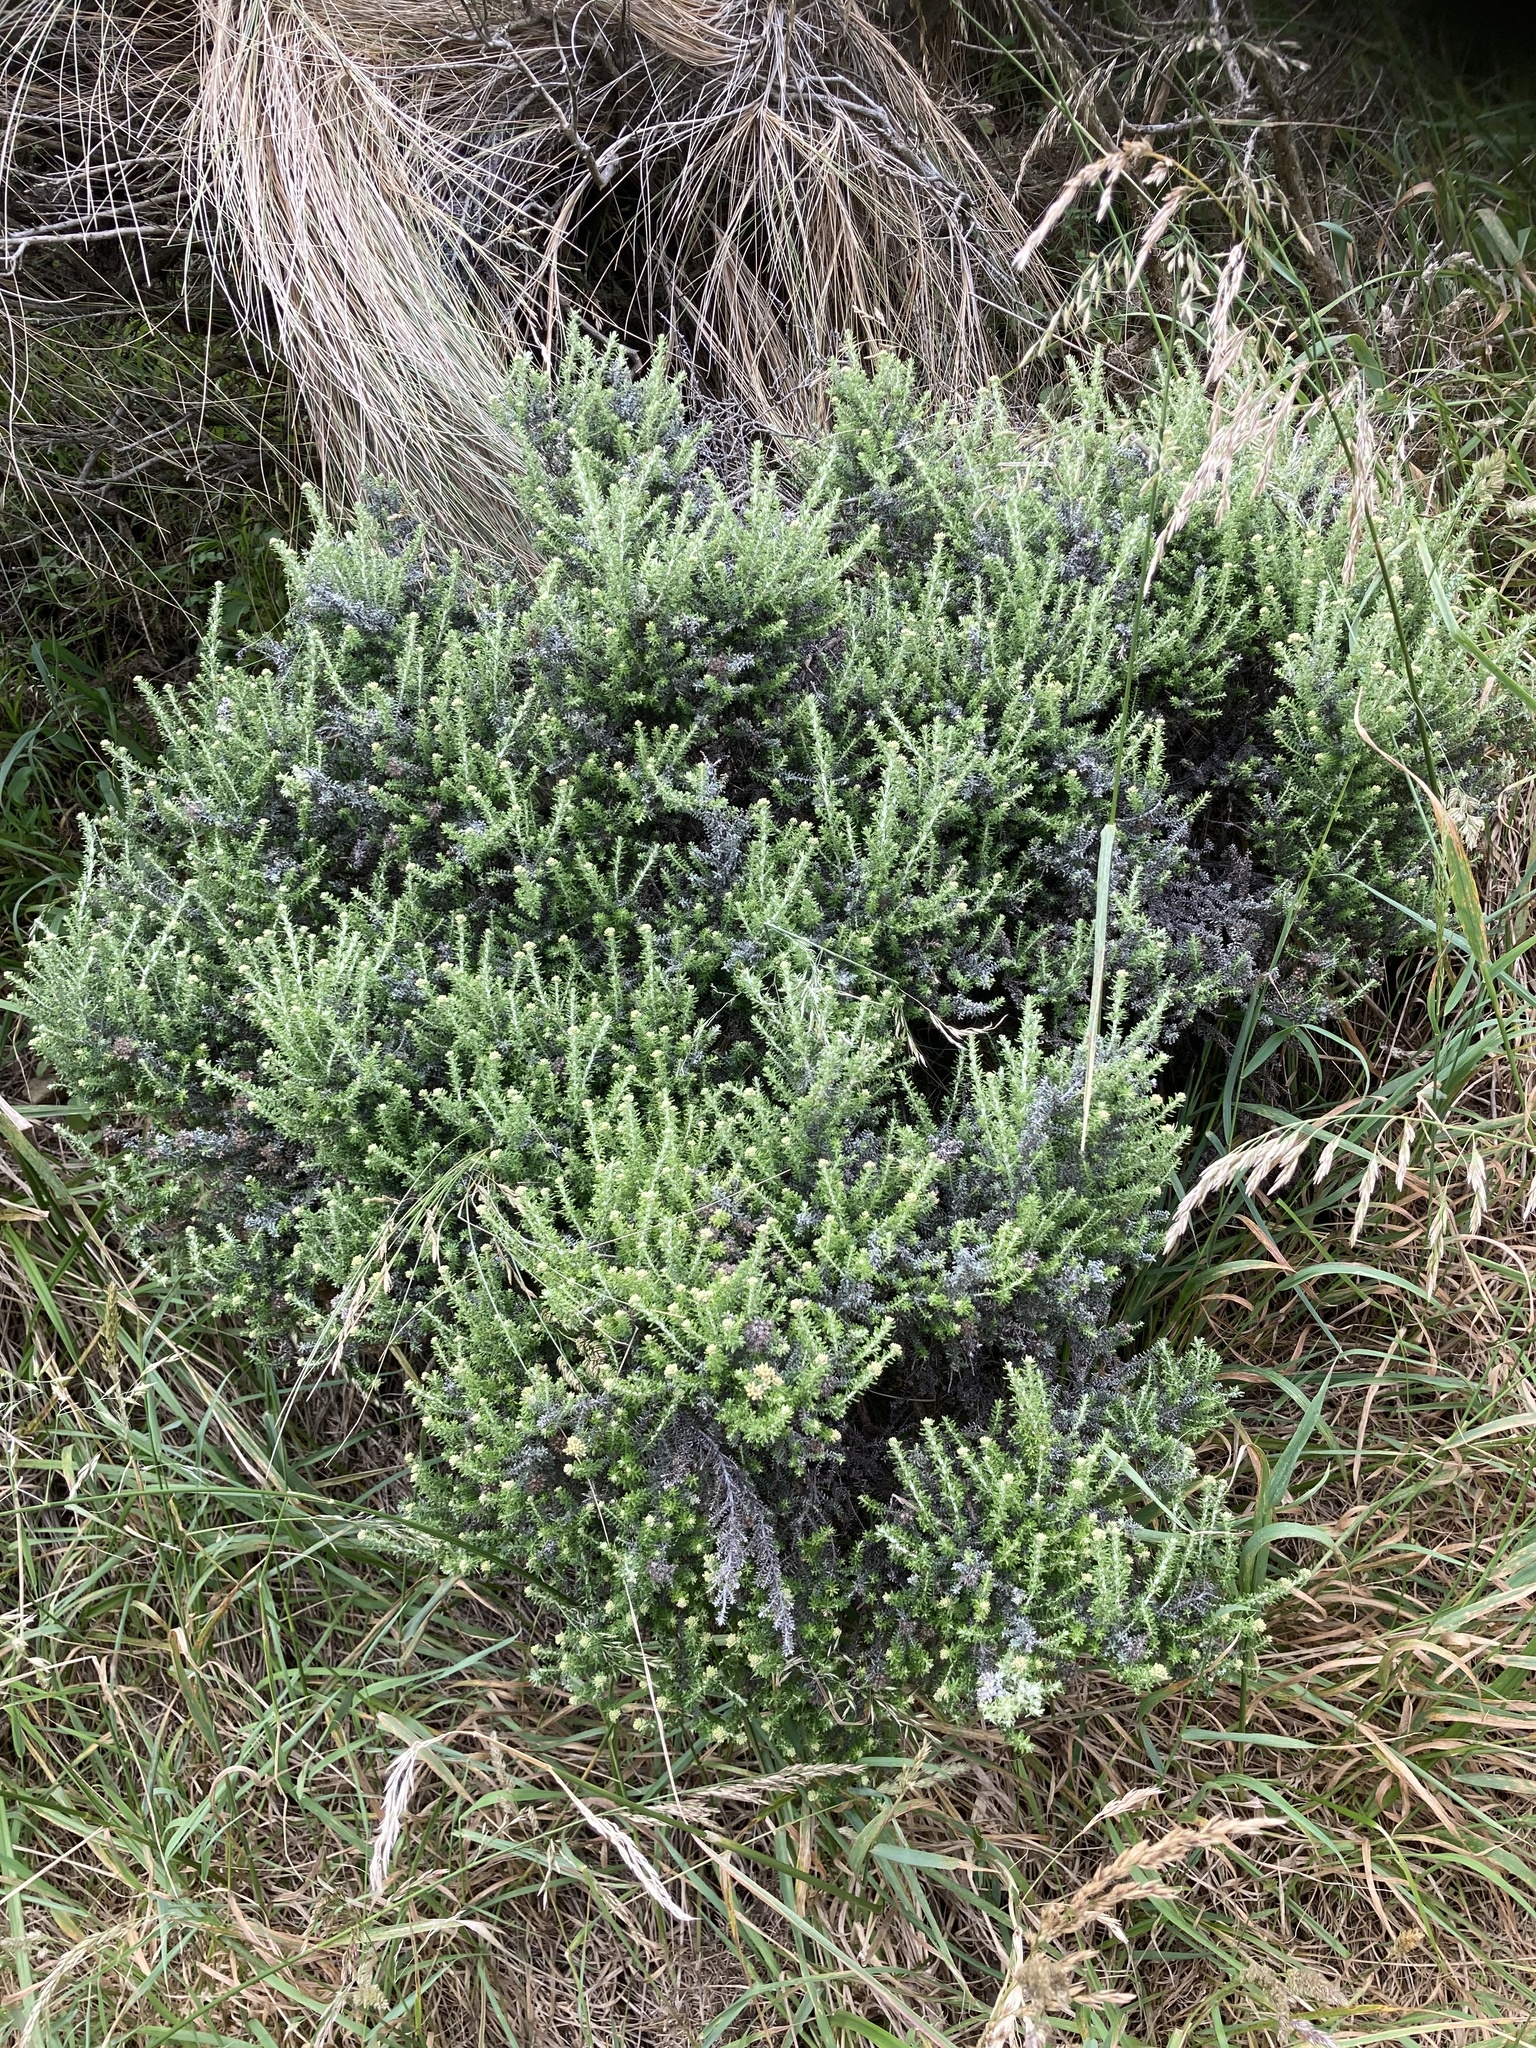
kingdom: Plantae
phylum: Tracheophyta
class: Magnoliopsida
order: Asterales
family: Asteraceae
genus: Ozothamnus
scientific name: Ozothamnus leptophyllus
